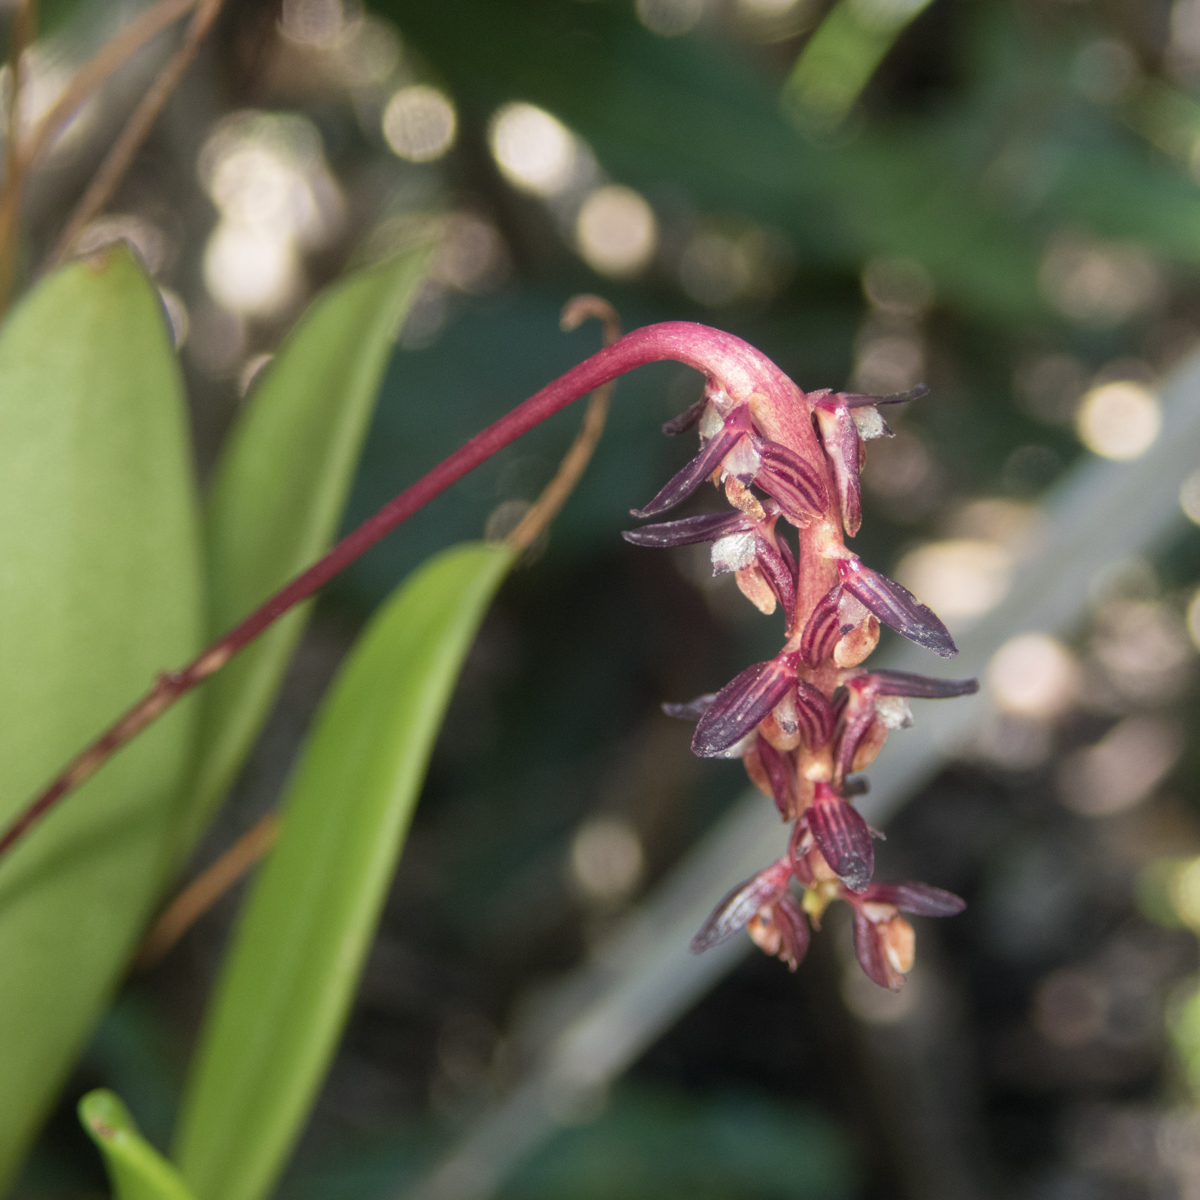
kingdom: Plantae
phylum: Tracheophyta
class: Liliopsida
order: Asparagales
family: Orchidaceae
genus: Bulbophyllum
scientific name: Bulbophyllum alcicorne
